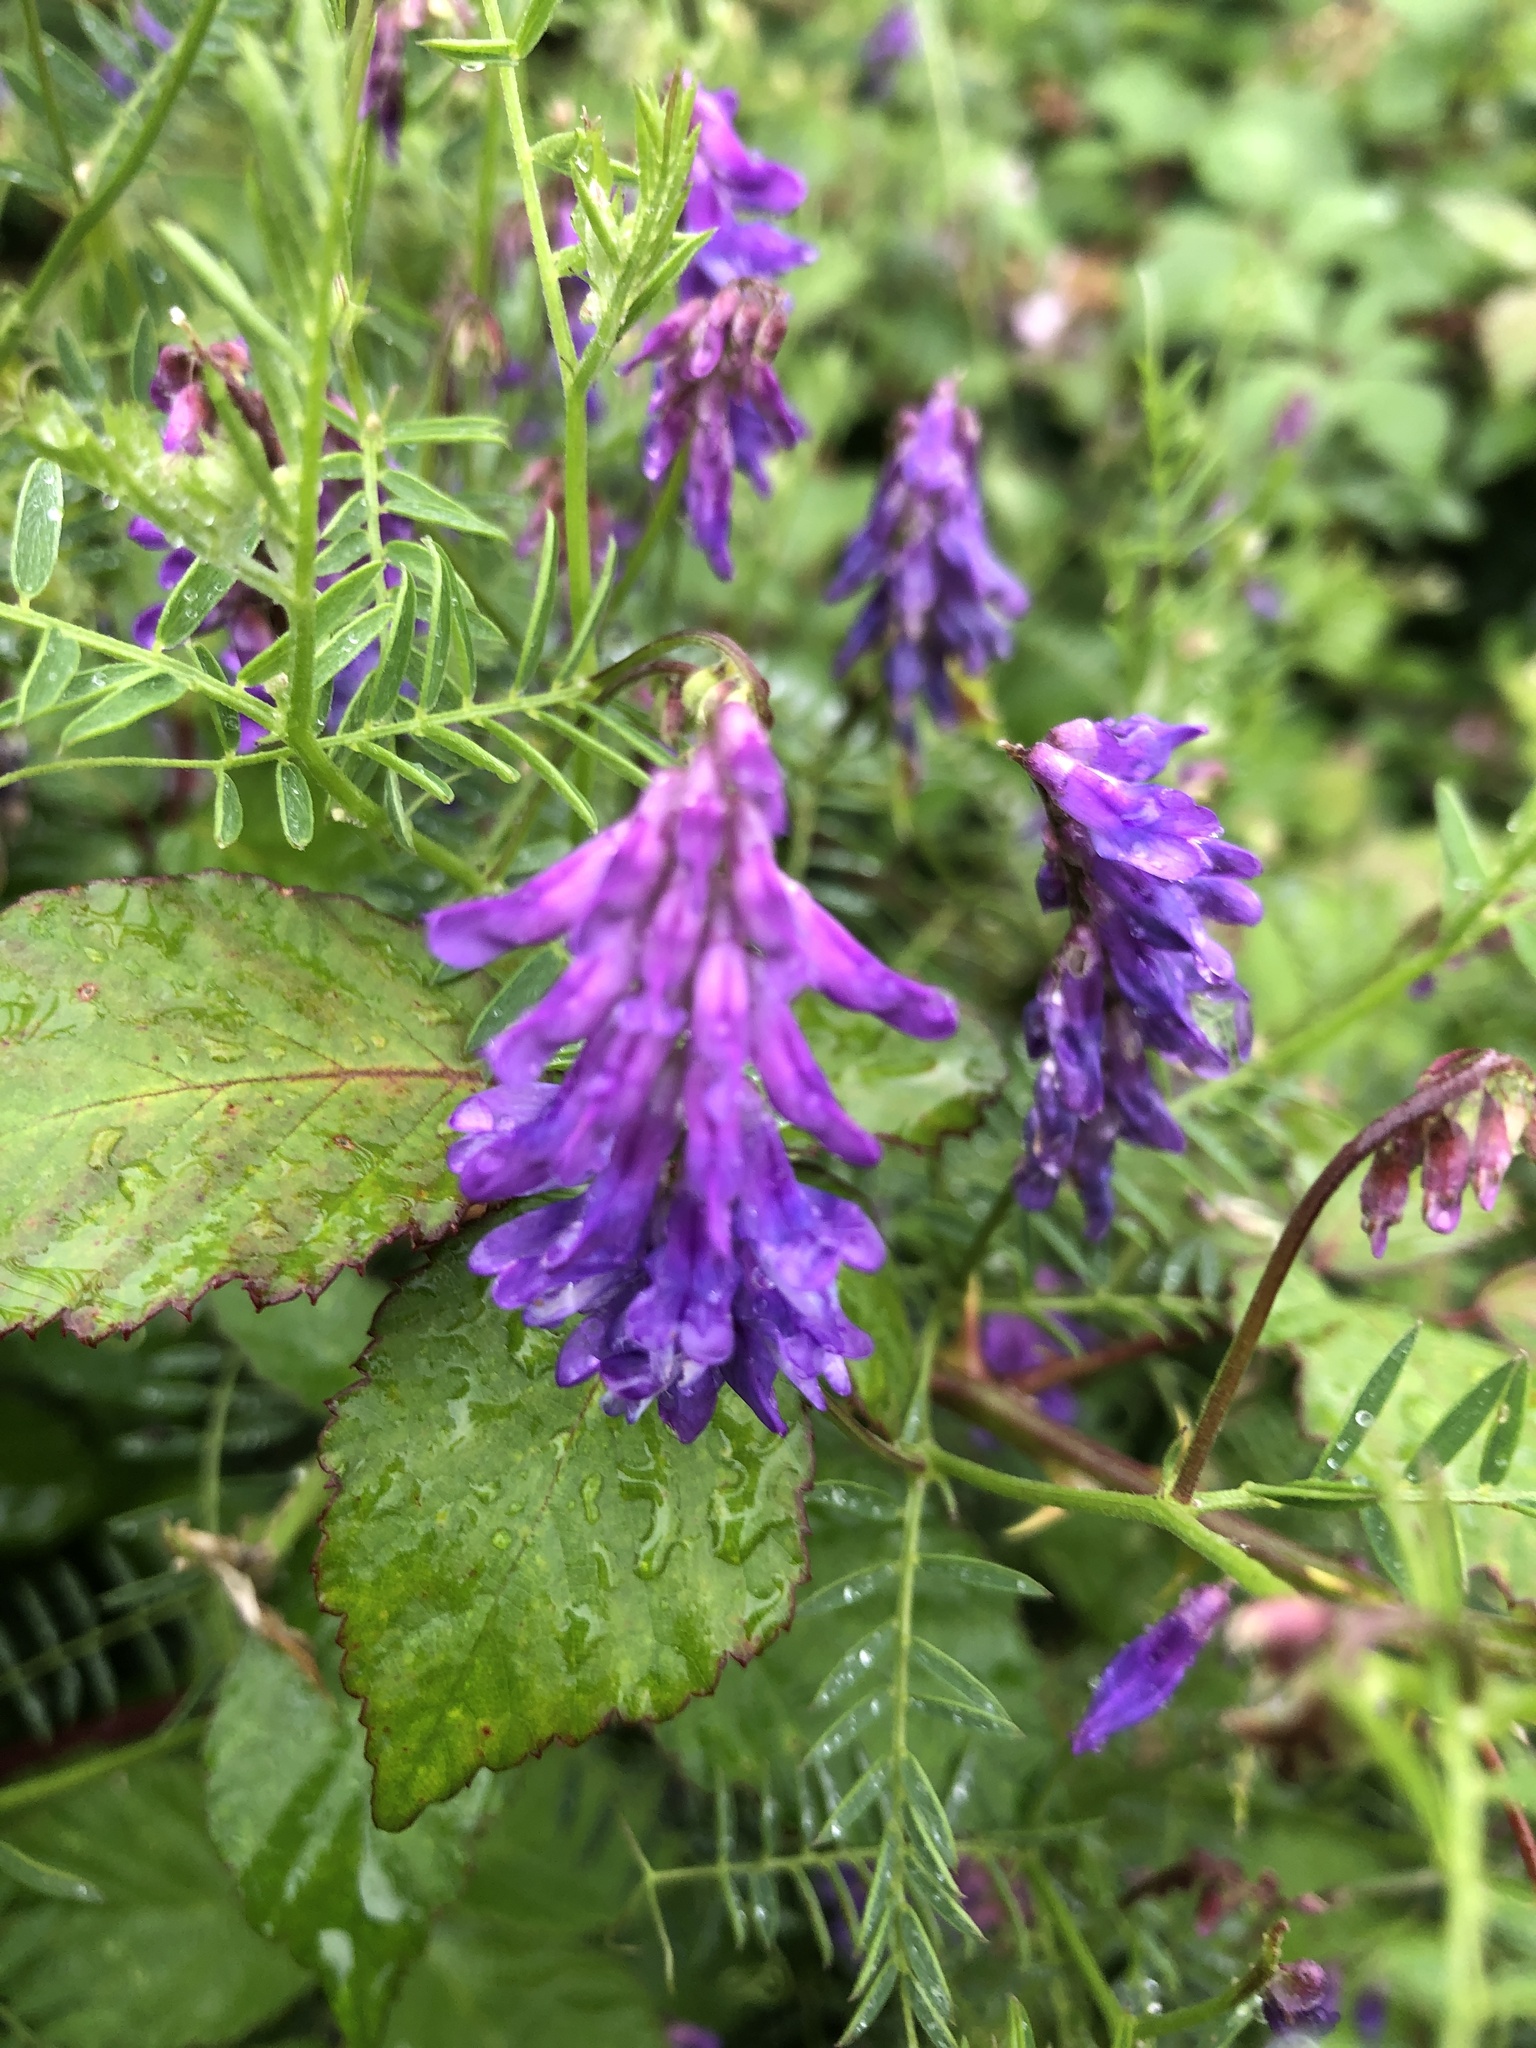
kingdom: Plantae
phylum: Tracheophyta
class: Magnoliopsida
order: Fabales
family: Fabaceae
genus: Vicia
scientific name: Vicia cracca
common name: Bird vetch
